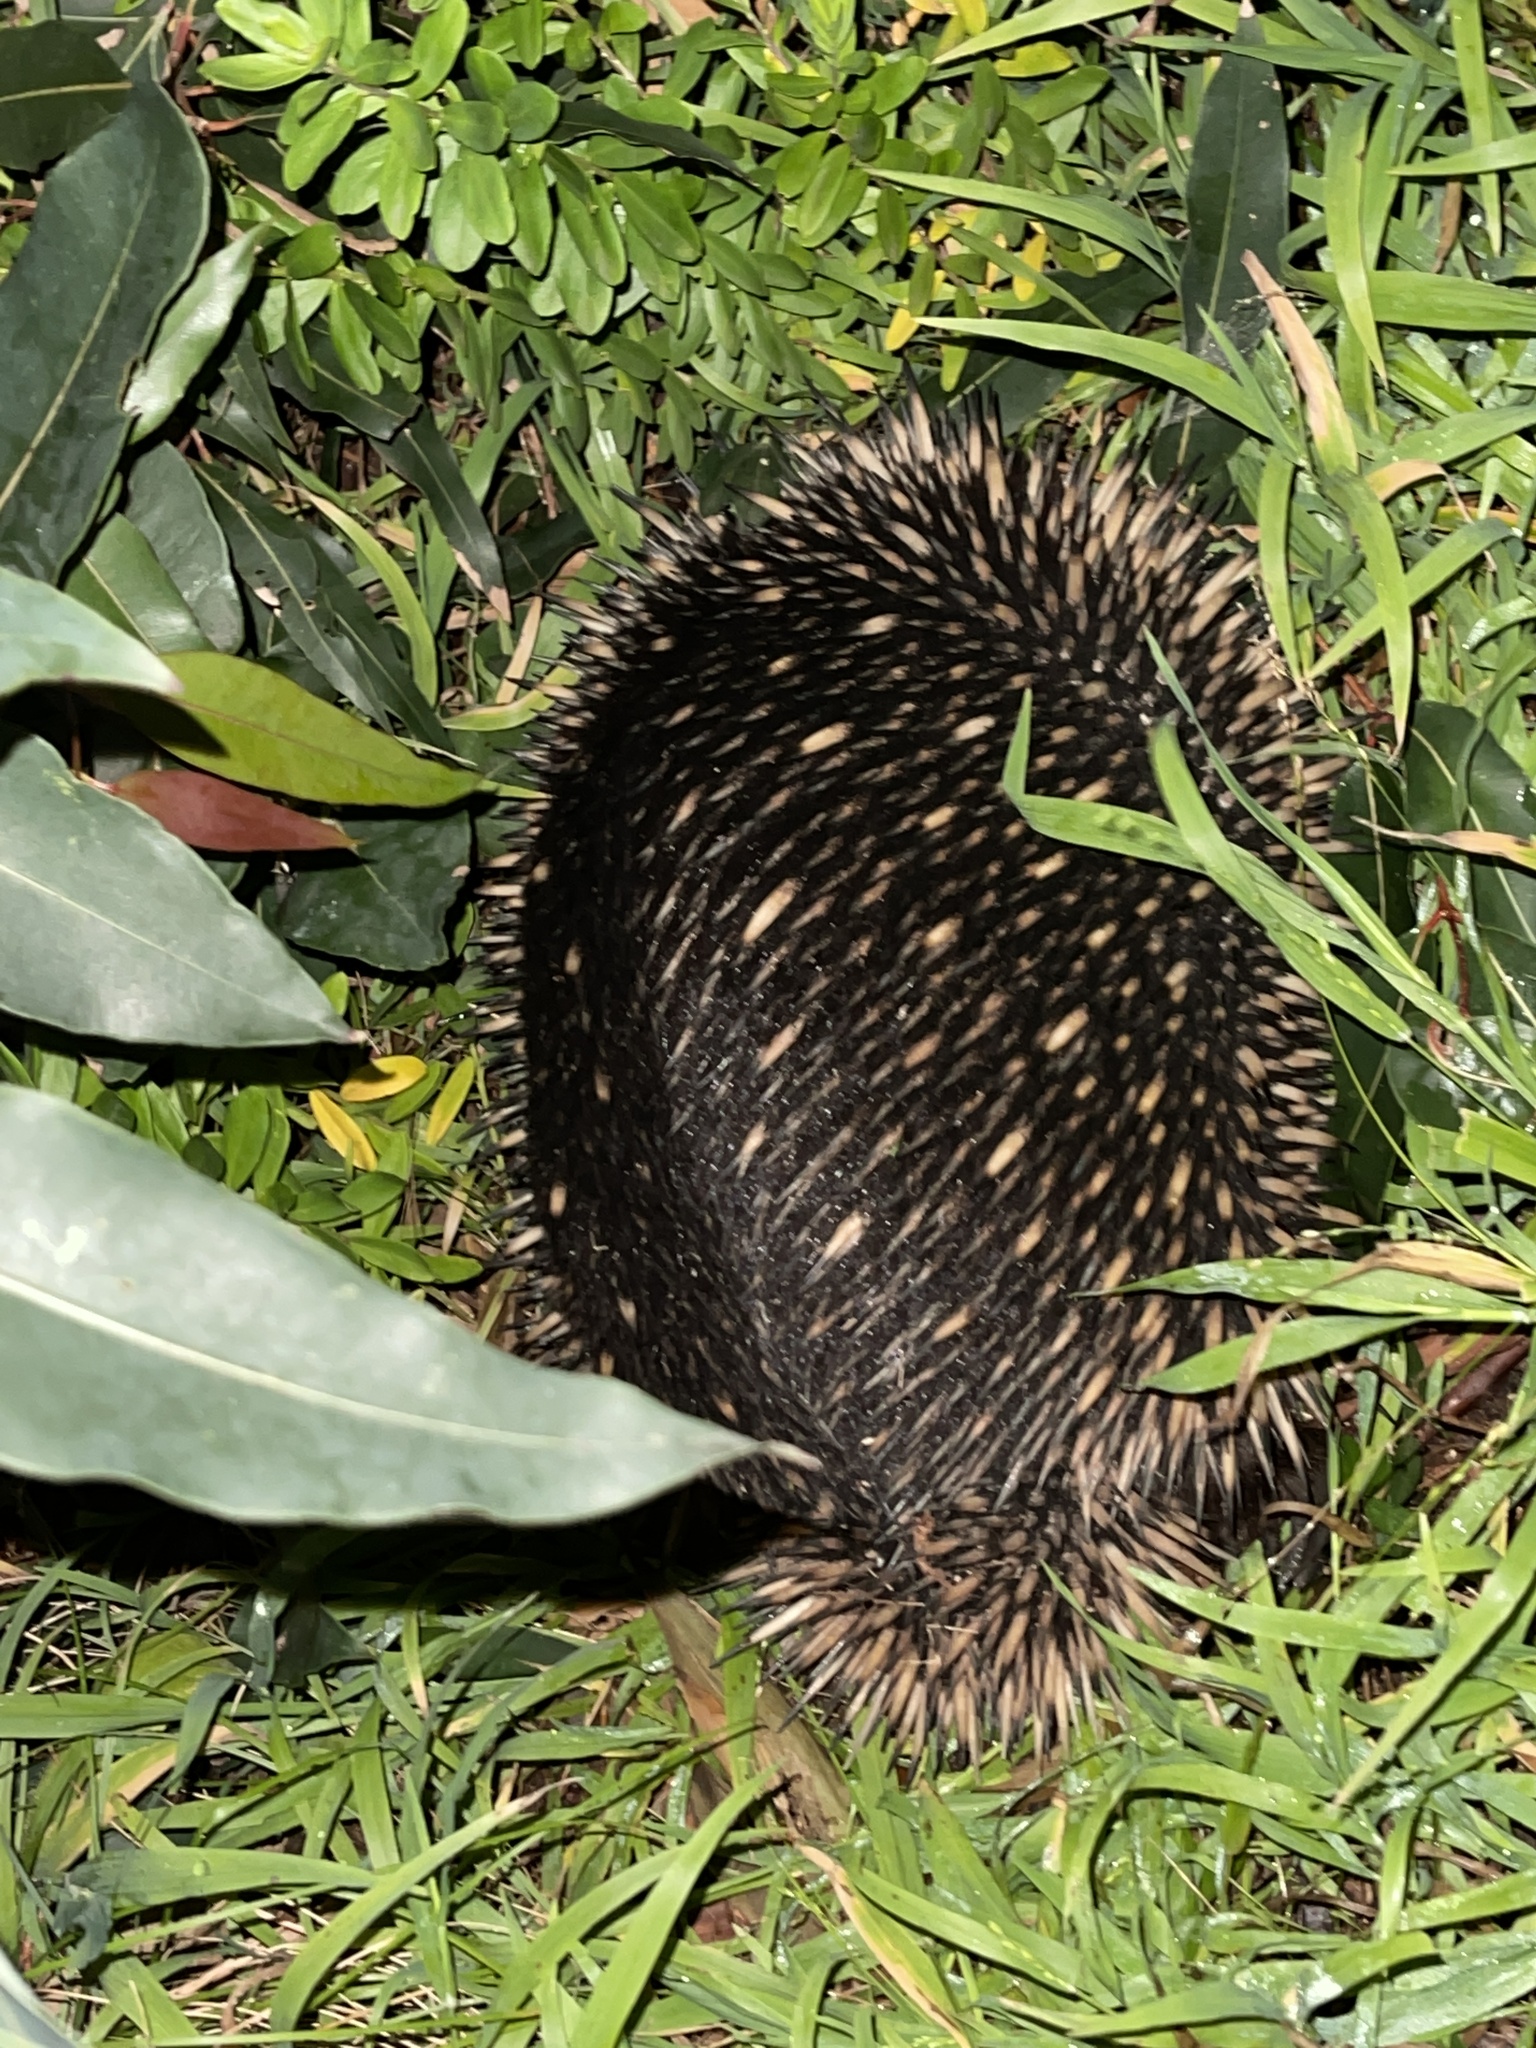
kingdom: Animalia
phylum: Chordata
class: Mammalia
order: Monotremata
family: Tachyglossidae
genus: Tachyglossus
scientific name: Tachyglossus aculeatus
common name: Short-beaked echidna
